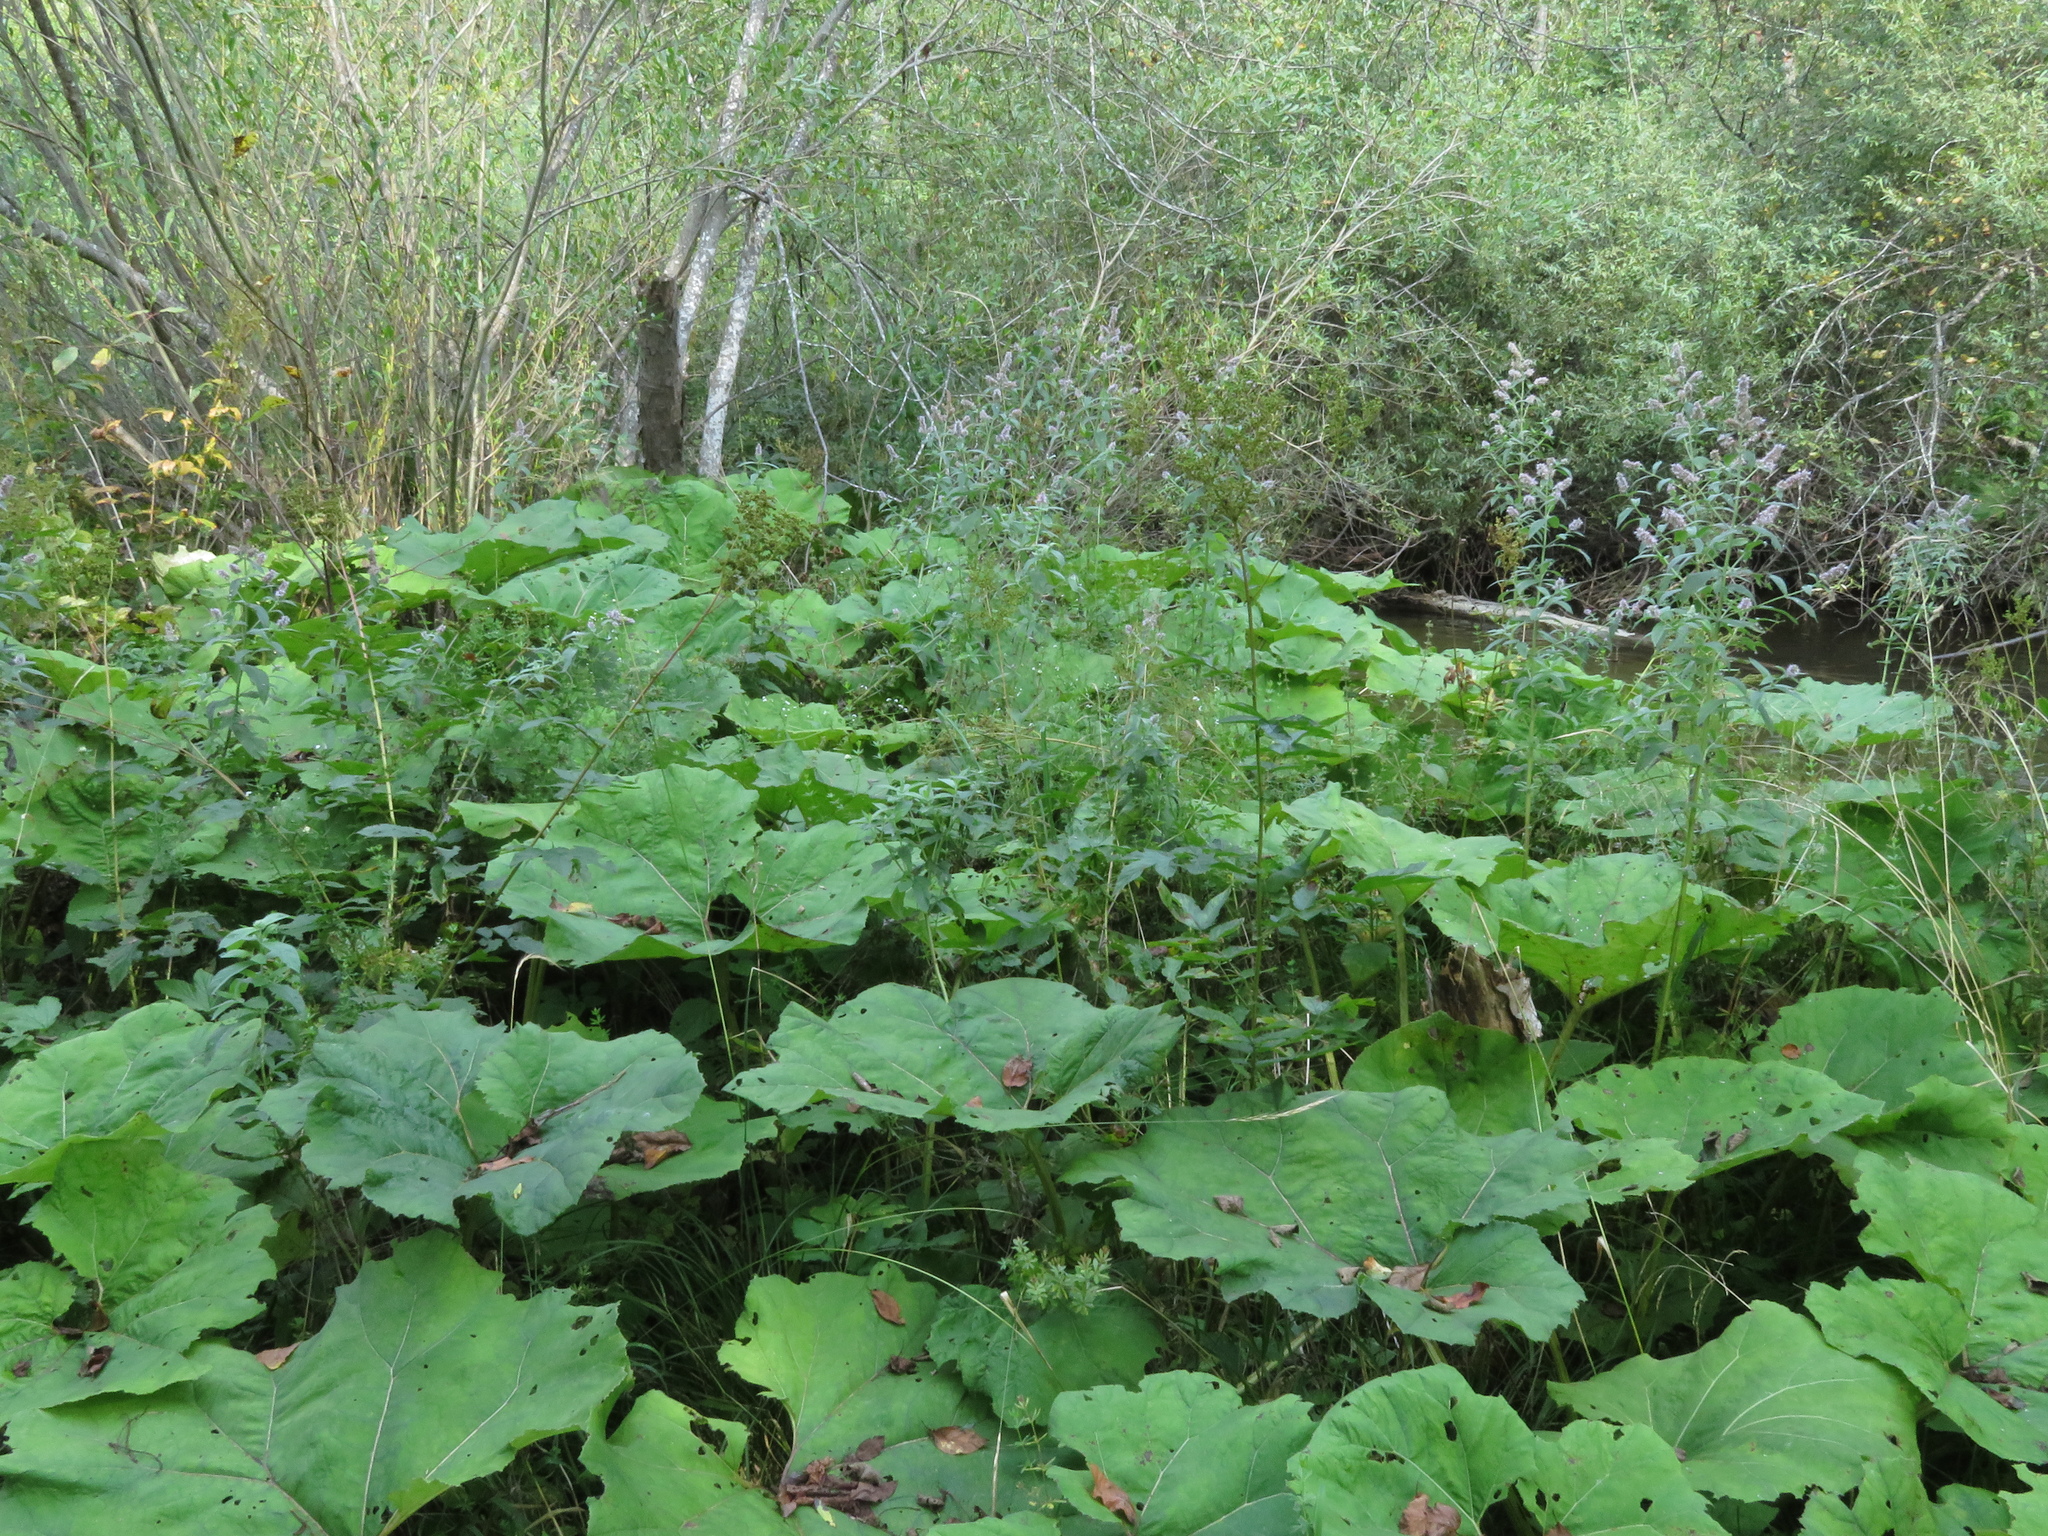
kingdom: Plantae
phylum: Tracheophyta
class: Magnoliopsida
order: Asterales
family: Asteraceae
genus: Petasites
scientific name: Petasites hybridus
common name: Butterbur
